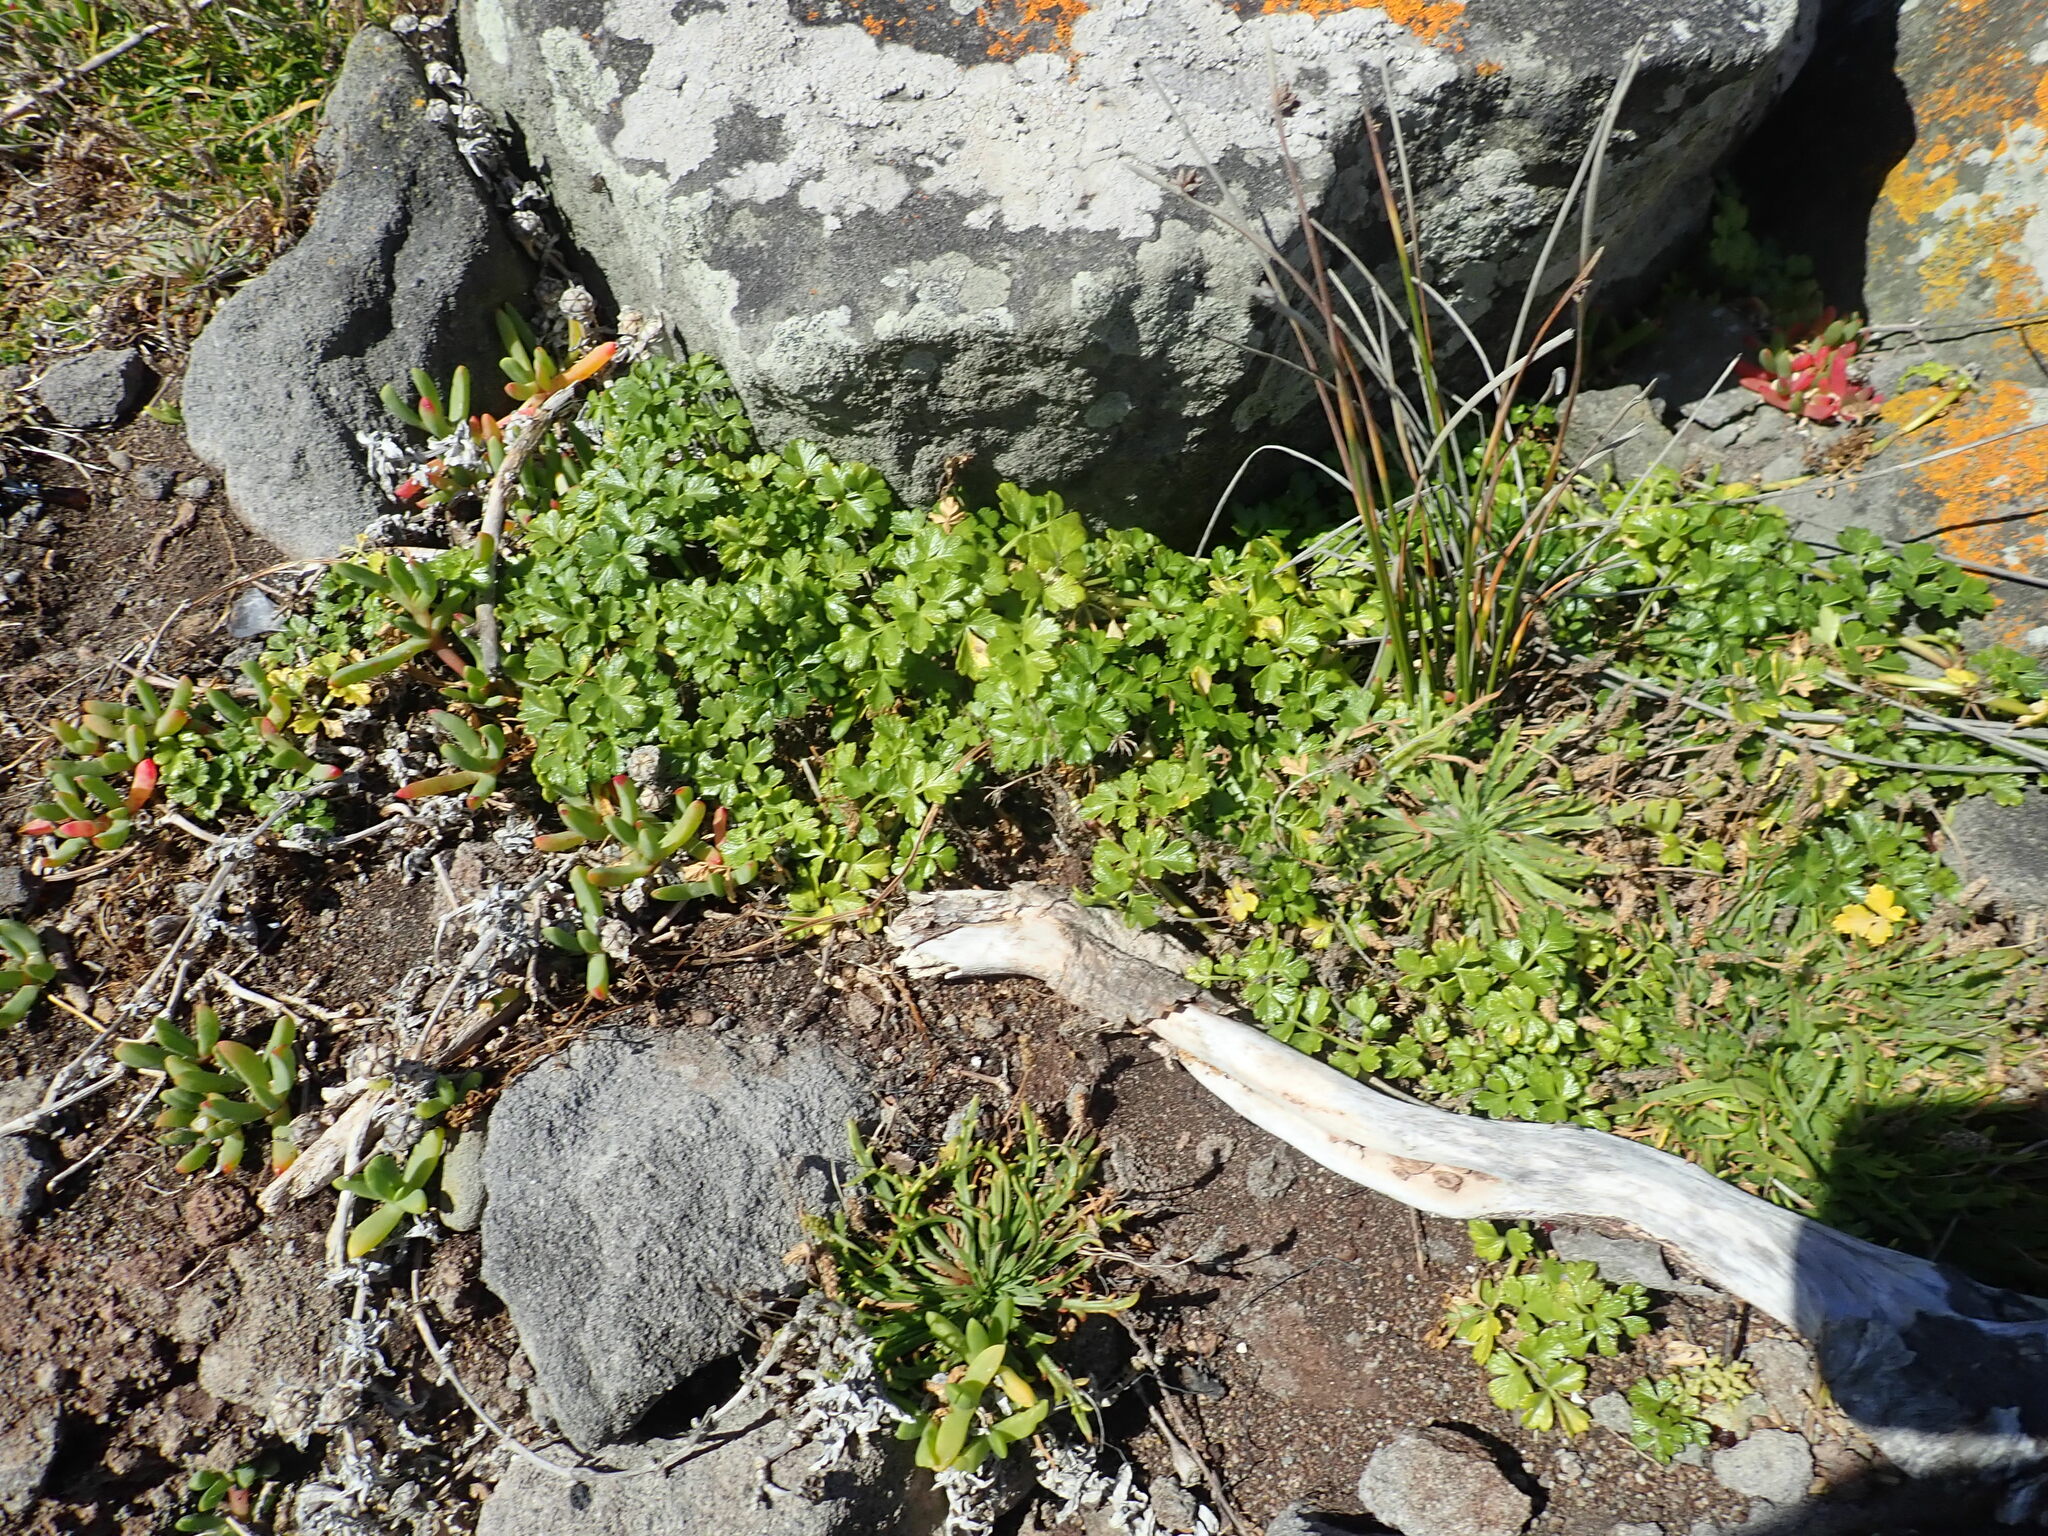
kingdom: Plantae
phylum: Tracheophyta
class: Magnoliopsida
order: Apiales
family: Apiaceae
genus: Apium
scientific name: Apium prostratum
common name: Prostrate marshwort
